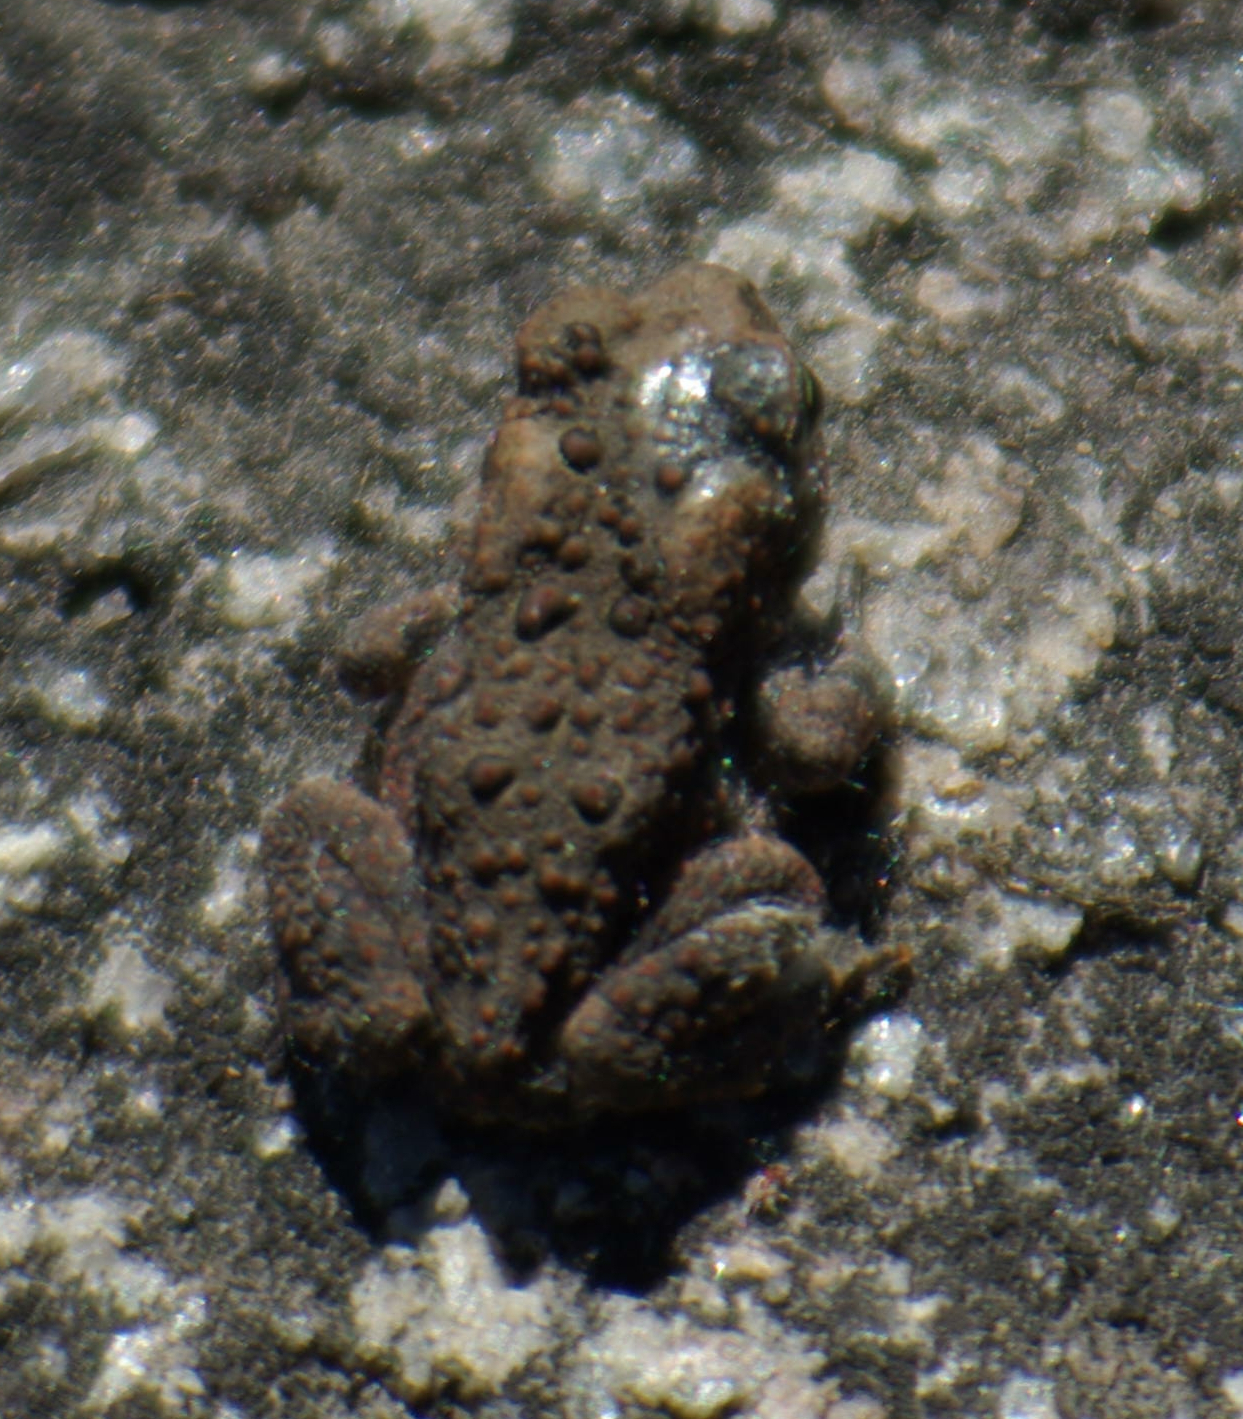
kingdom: Animalia
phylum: Chordata
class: Amphibia
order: Anura
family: Bufonidae
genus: Anaxyrus
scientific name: Anaxyrus americanus
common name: American toad
